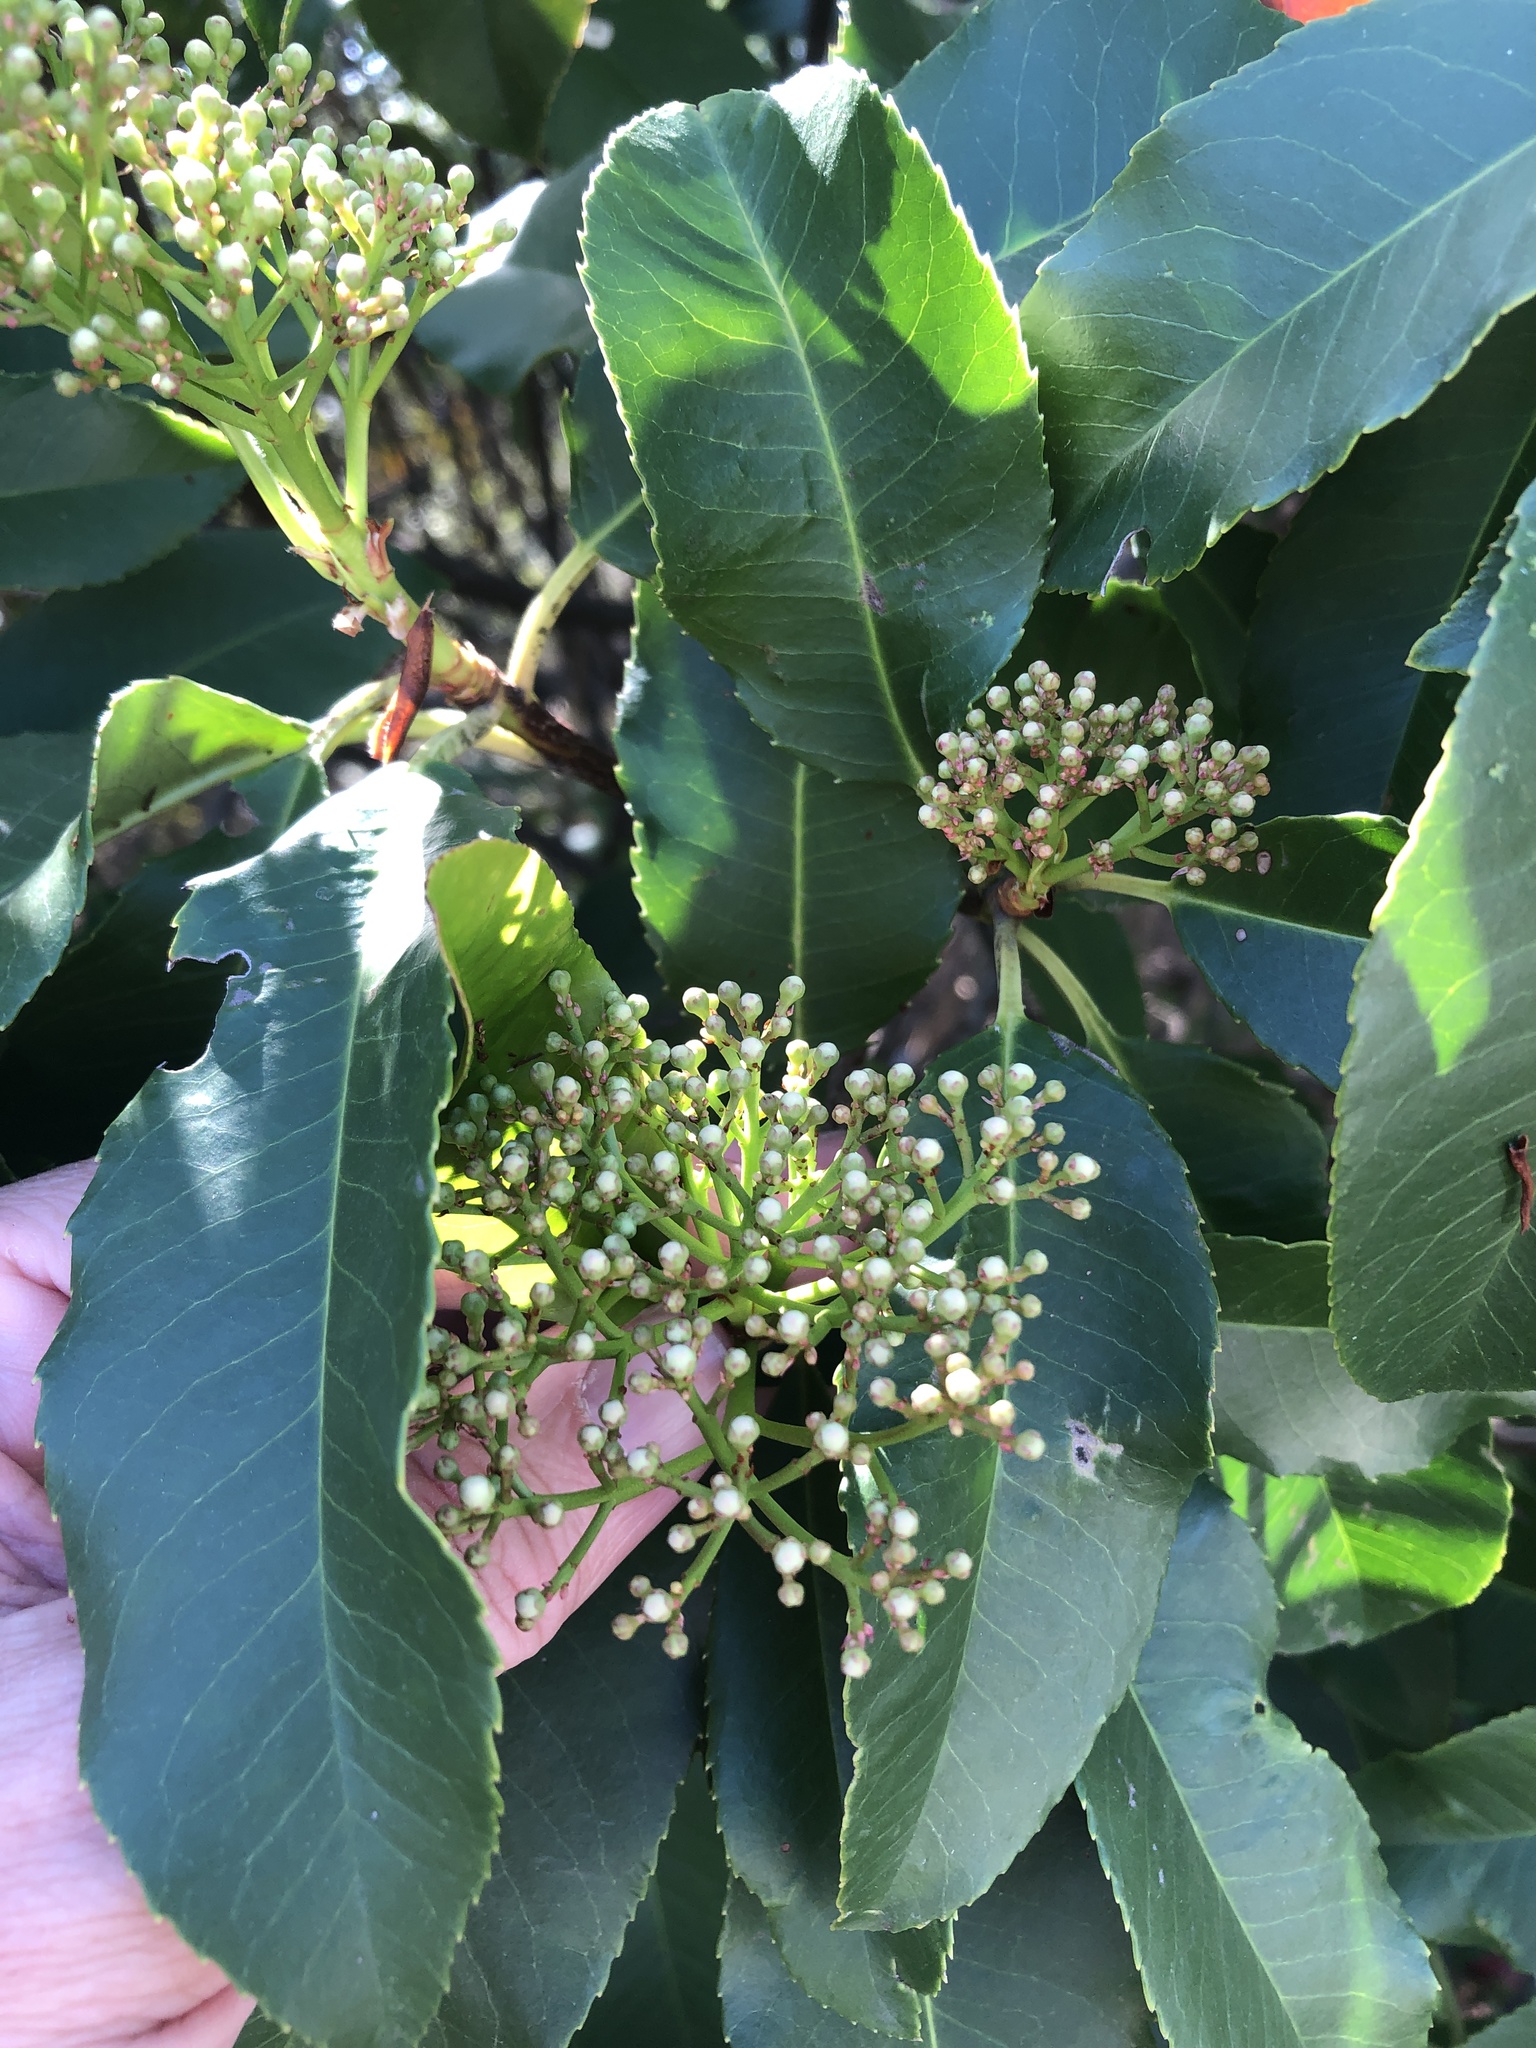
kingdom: Plantae
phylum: Tracheophyta
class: Magnoliopsida
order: Rosales
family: Rosaceae
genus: Photinia
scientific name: Photinia serratifolia
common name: Taiwanese photinia
